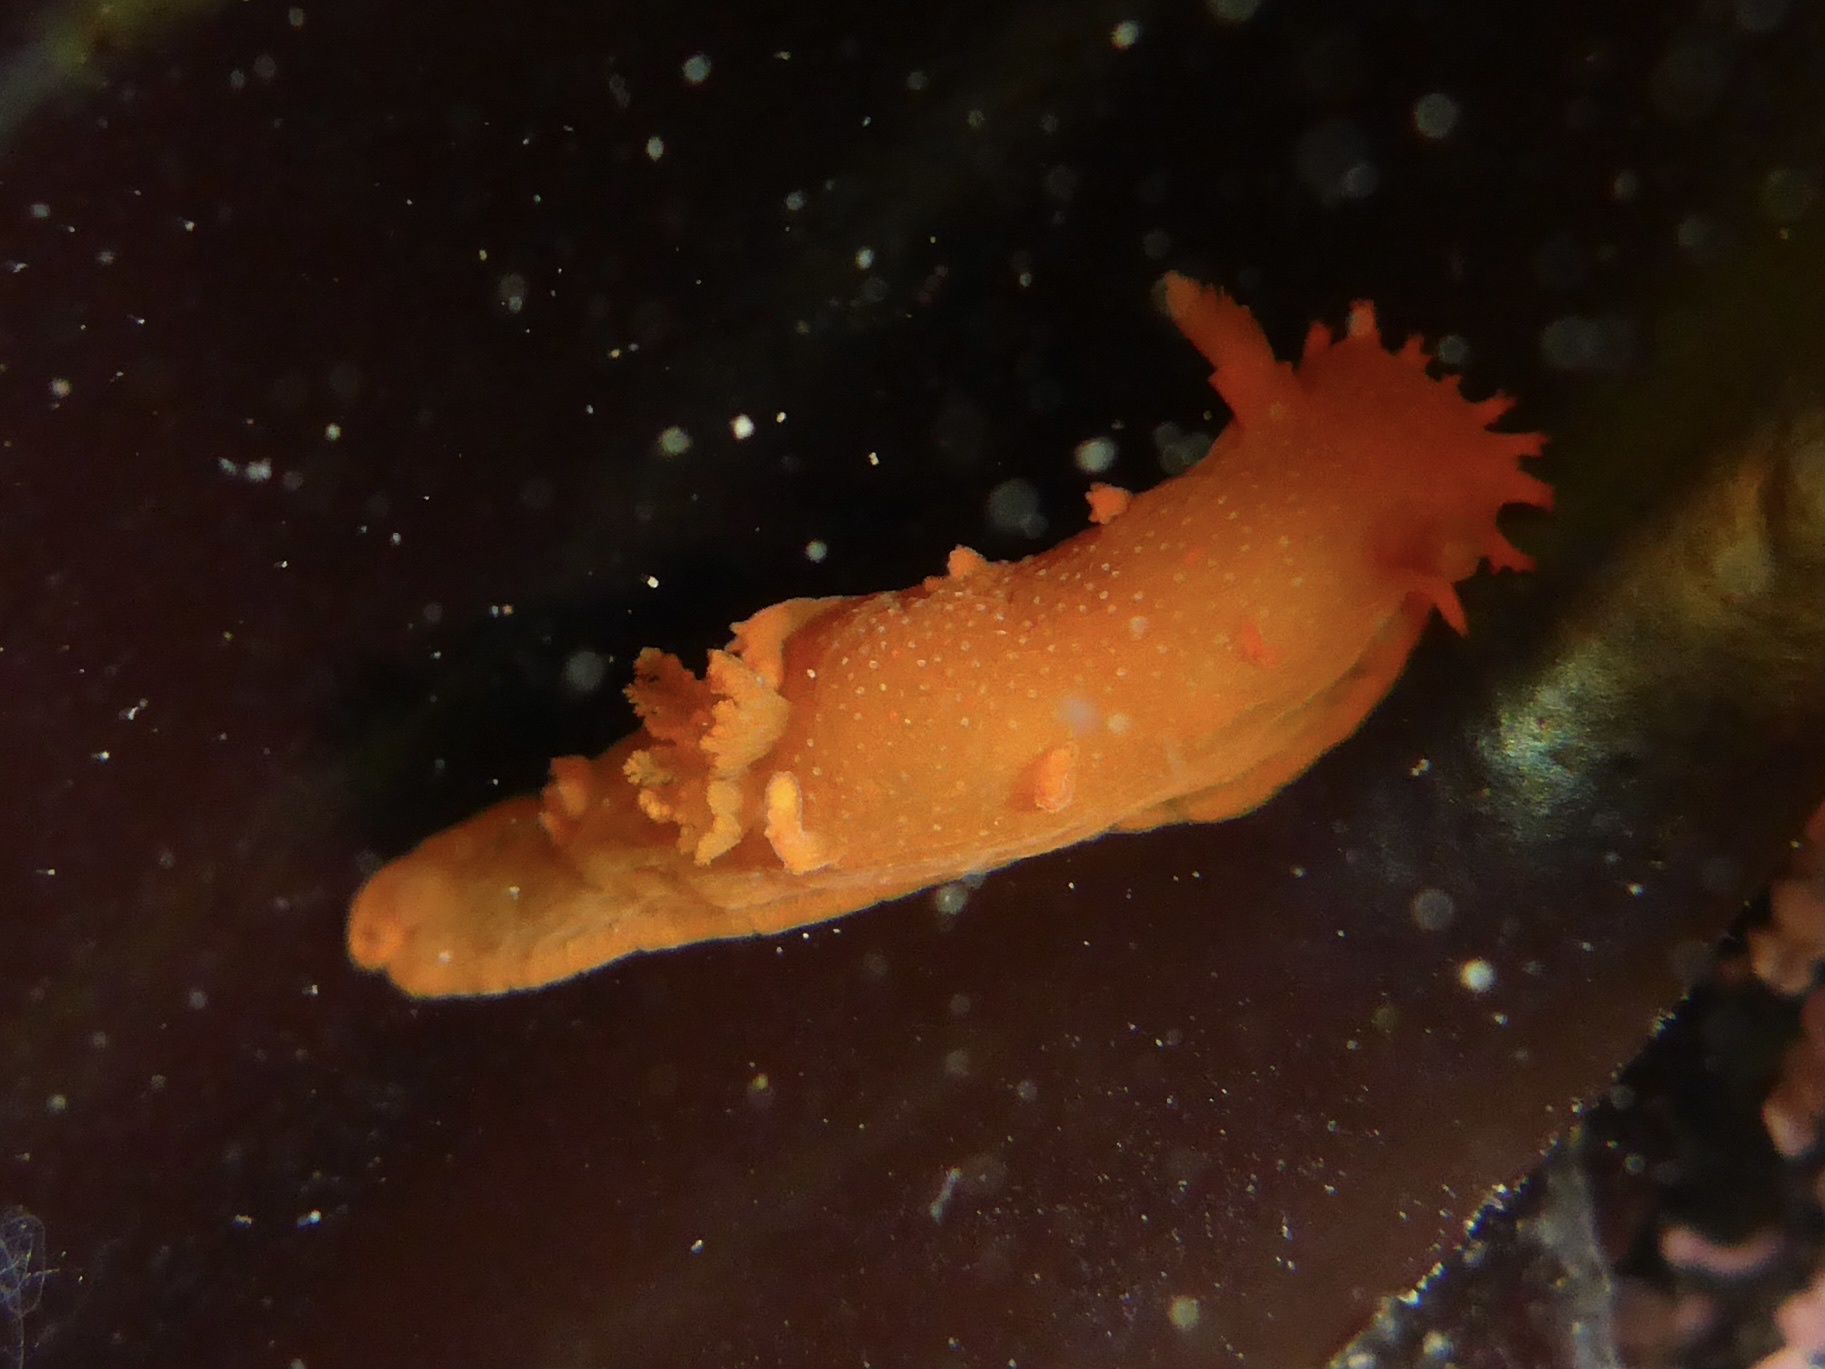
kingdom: Animalia
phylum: Mollusca
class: Gastropoda
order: Nudibranchia
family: Polyceridae
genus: Triopha
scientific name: Triopha maculata
